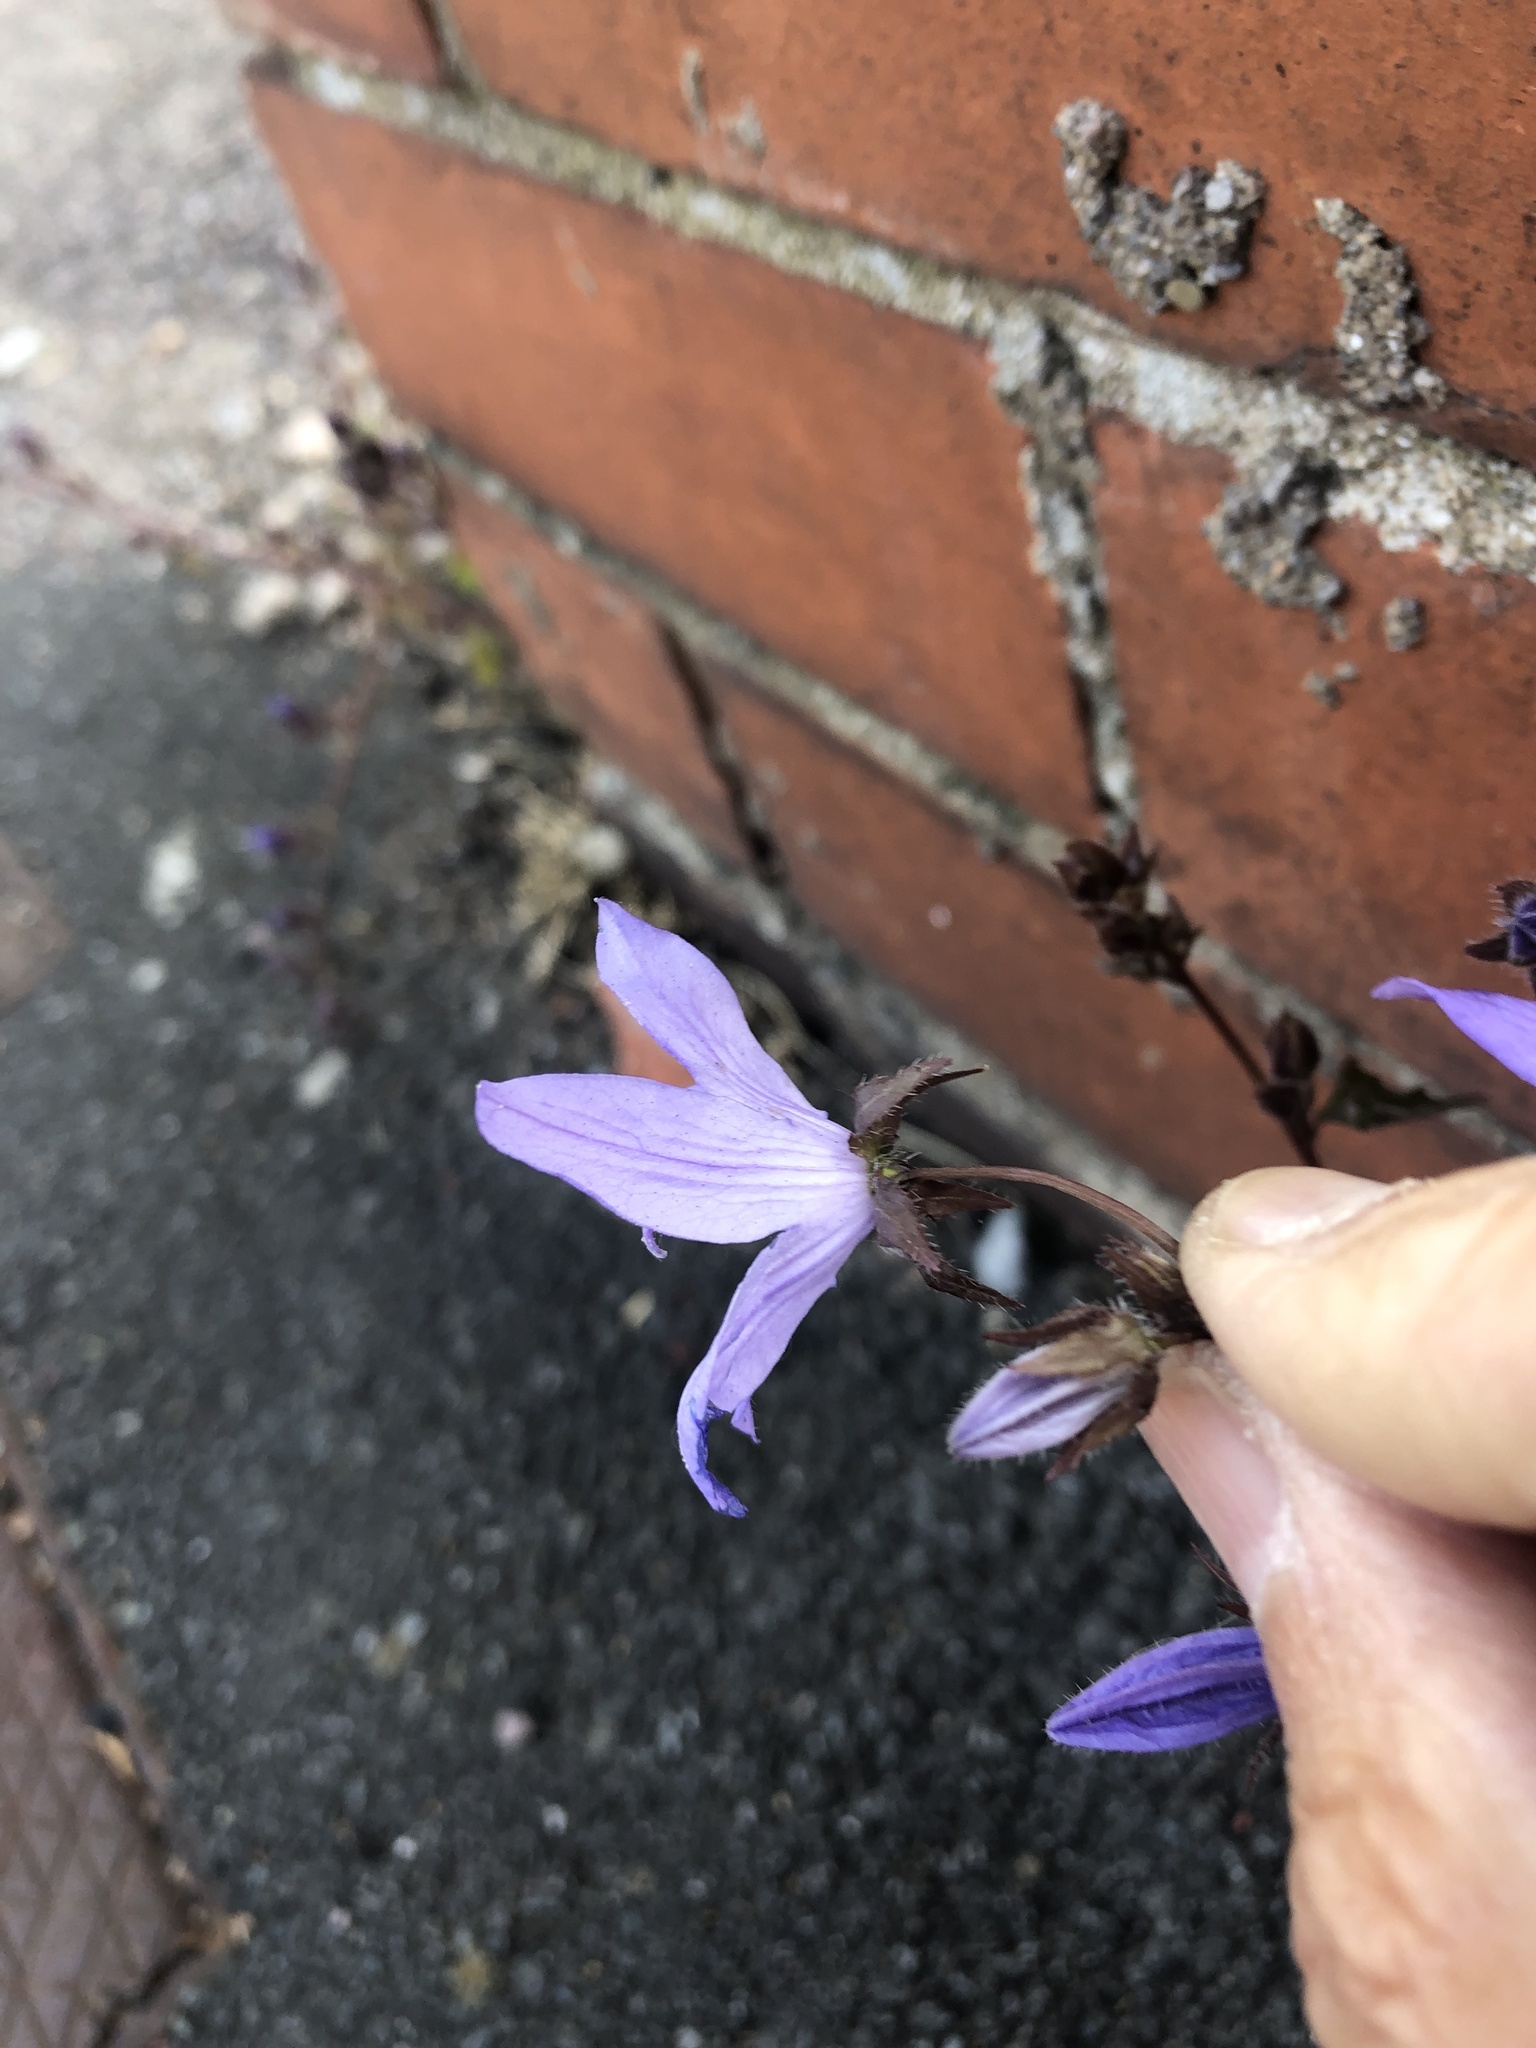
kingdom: Plantae
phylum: Tracheophyta
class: Magnoliopsida
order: Asterales
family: Campanulaceae
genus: Campanula
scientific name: Campanula poscharskyana
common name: Trailing bellflower
